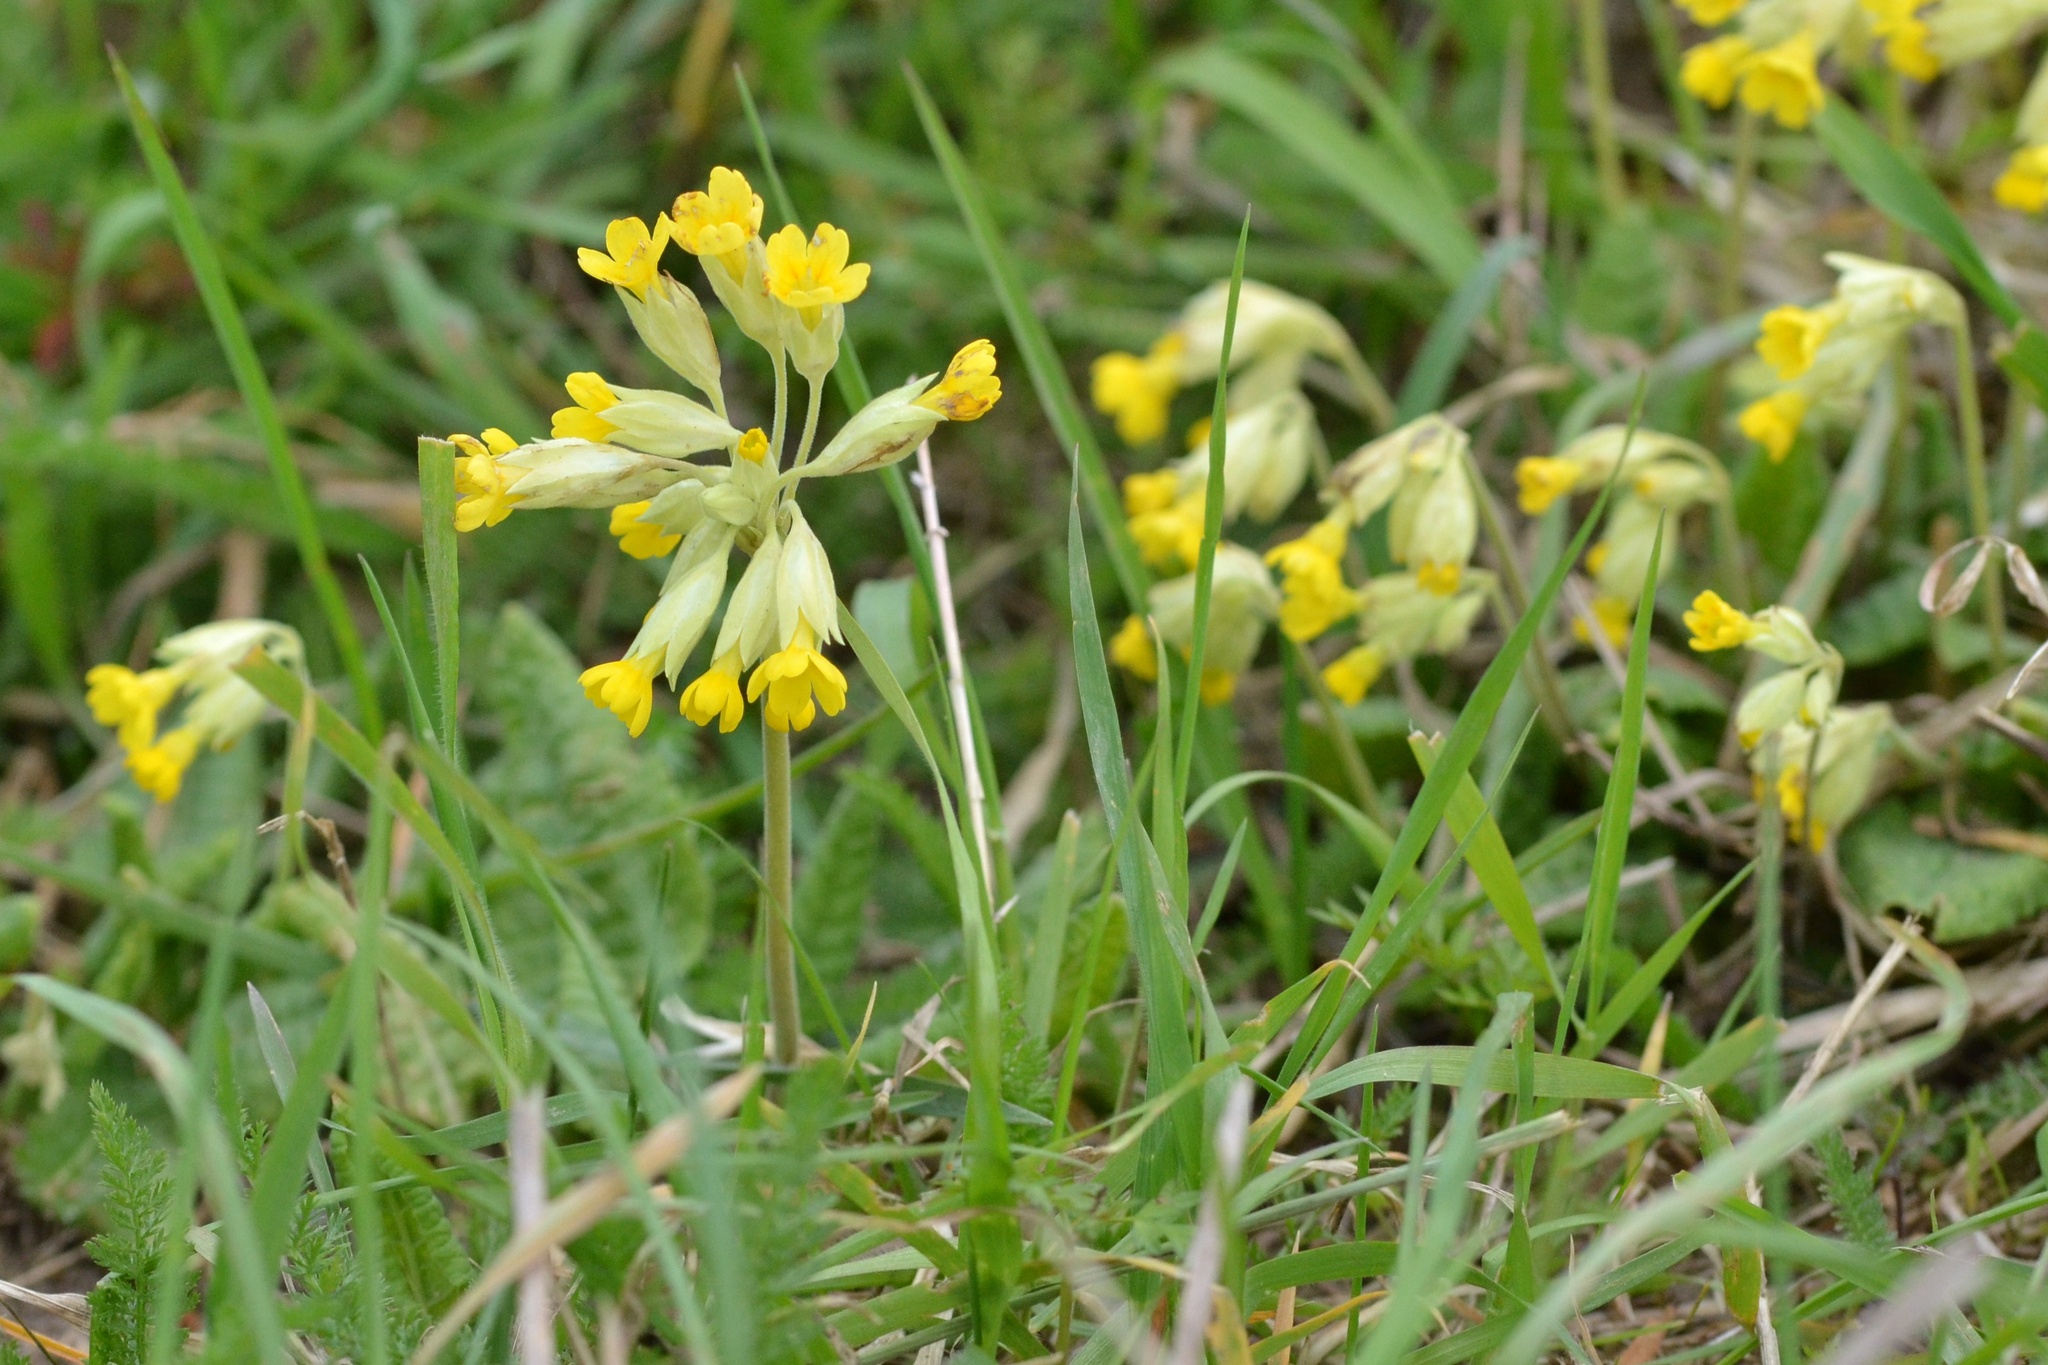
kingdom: Plantae
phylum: Tracheophyta
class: Magnoliopsida
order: Ericales
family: Primulaceae
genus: Primula
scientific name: Primula veris
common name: Cowslip
